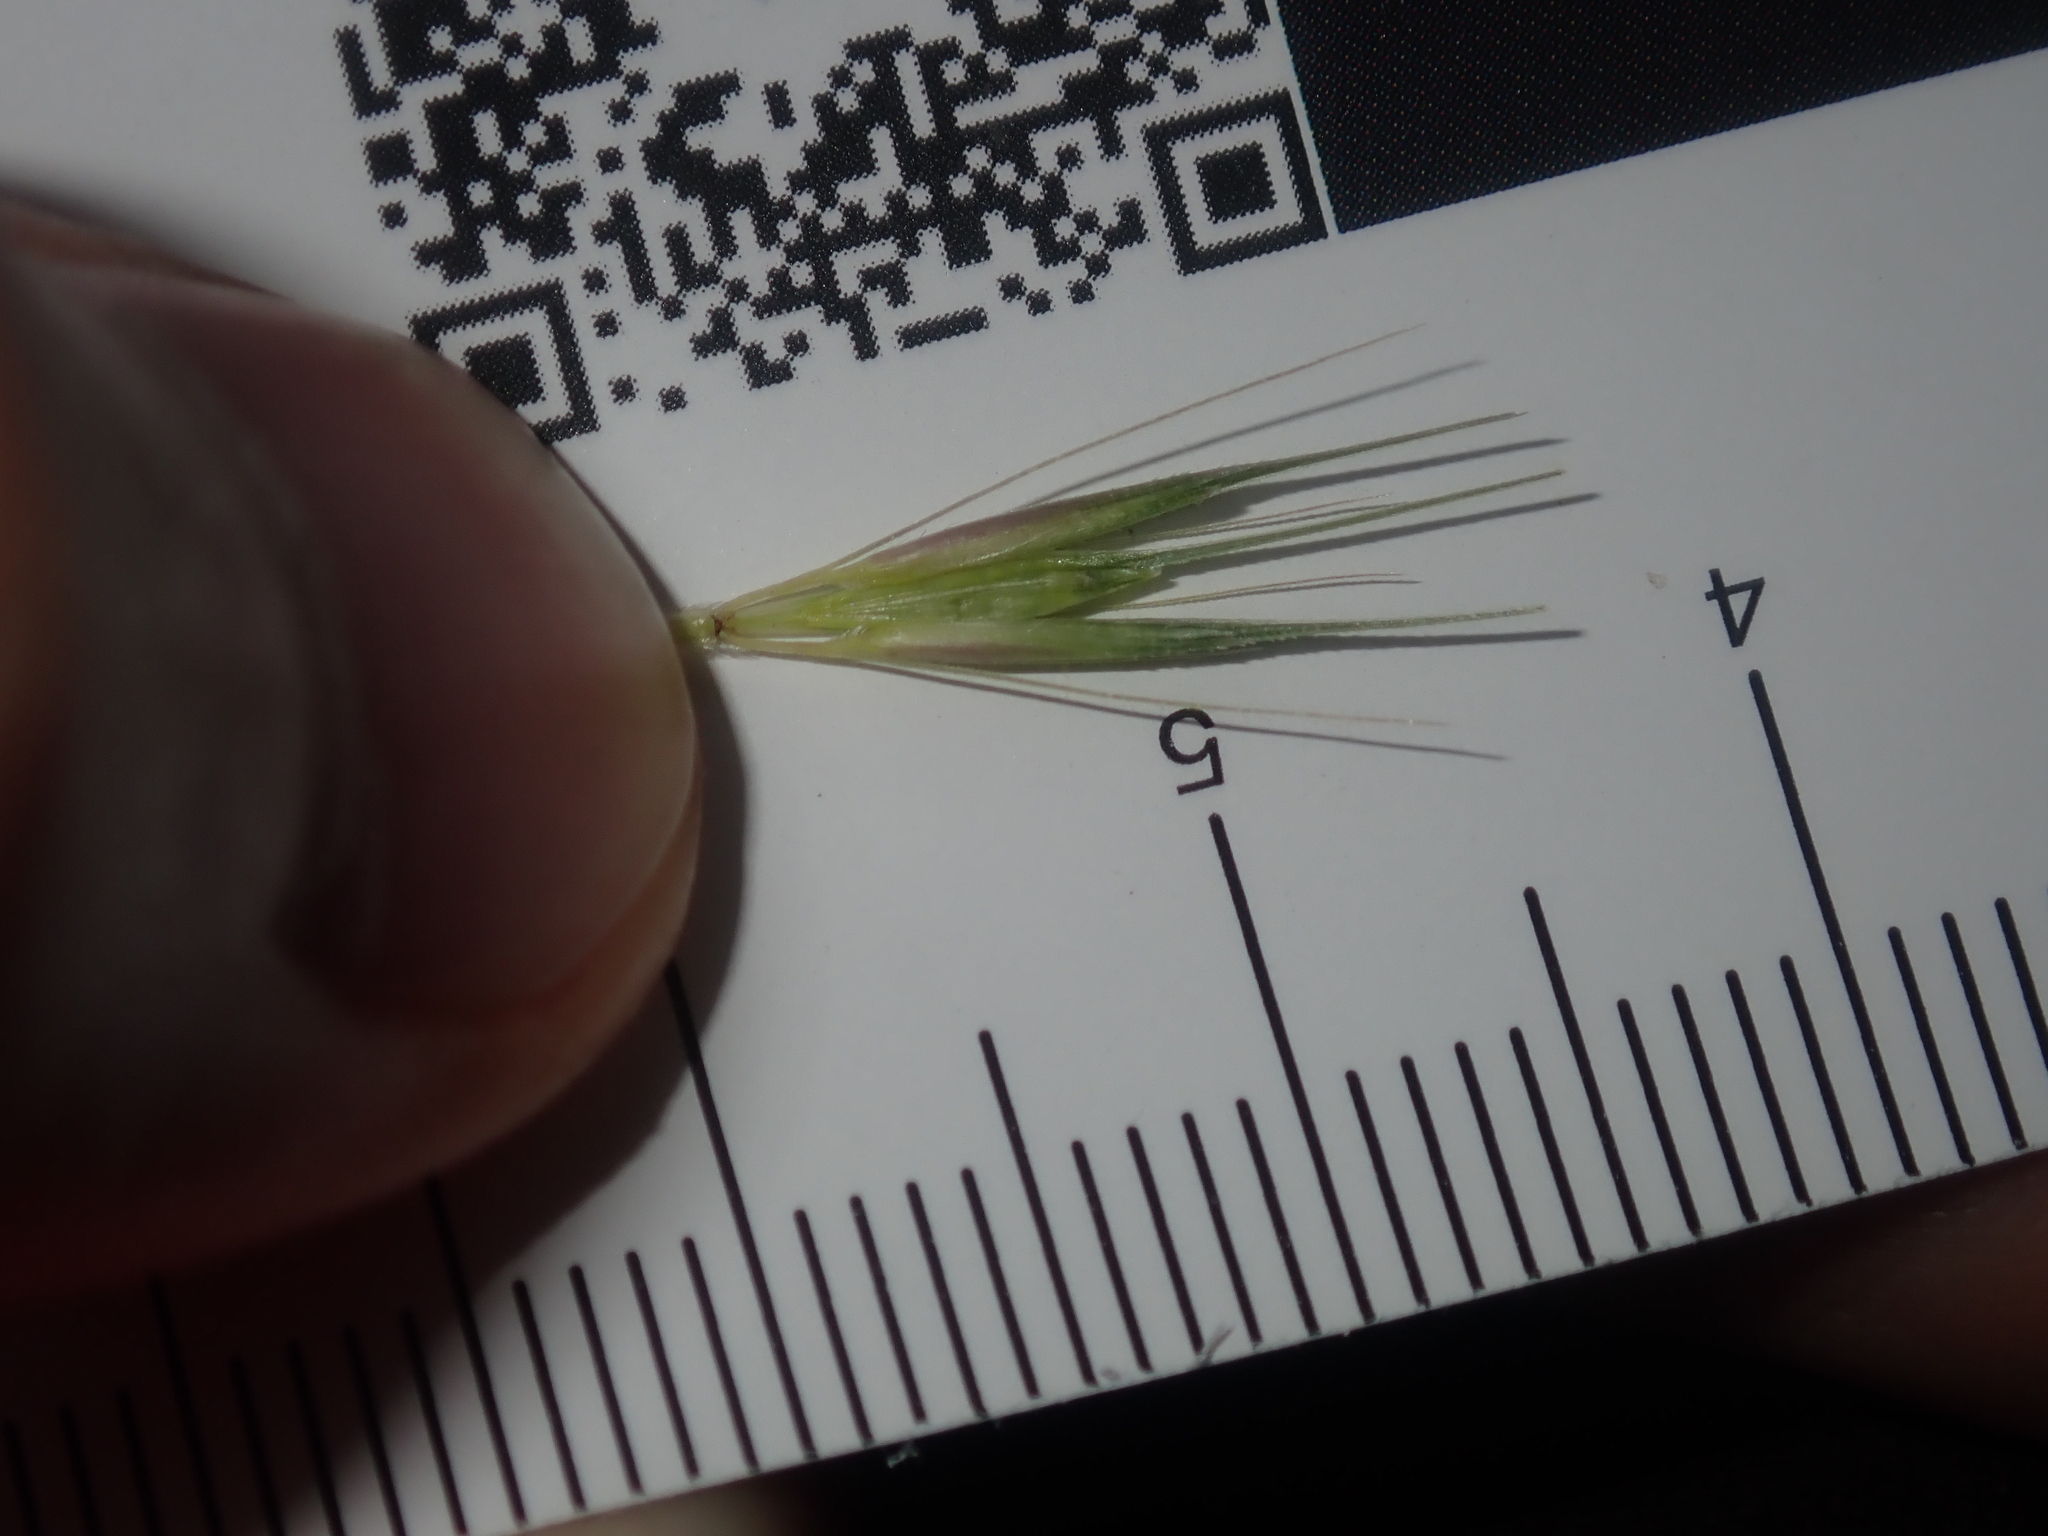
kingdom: Plantae
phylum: Tracheophyta
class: Liliopsida
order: Poales
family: Poaceae
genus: Hordeum
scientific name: Hordeum murinum
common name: Wall barley
